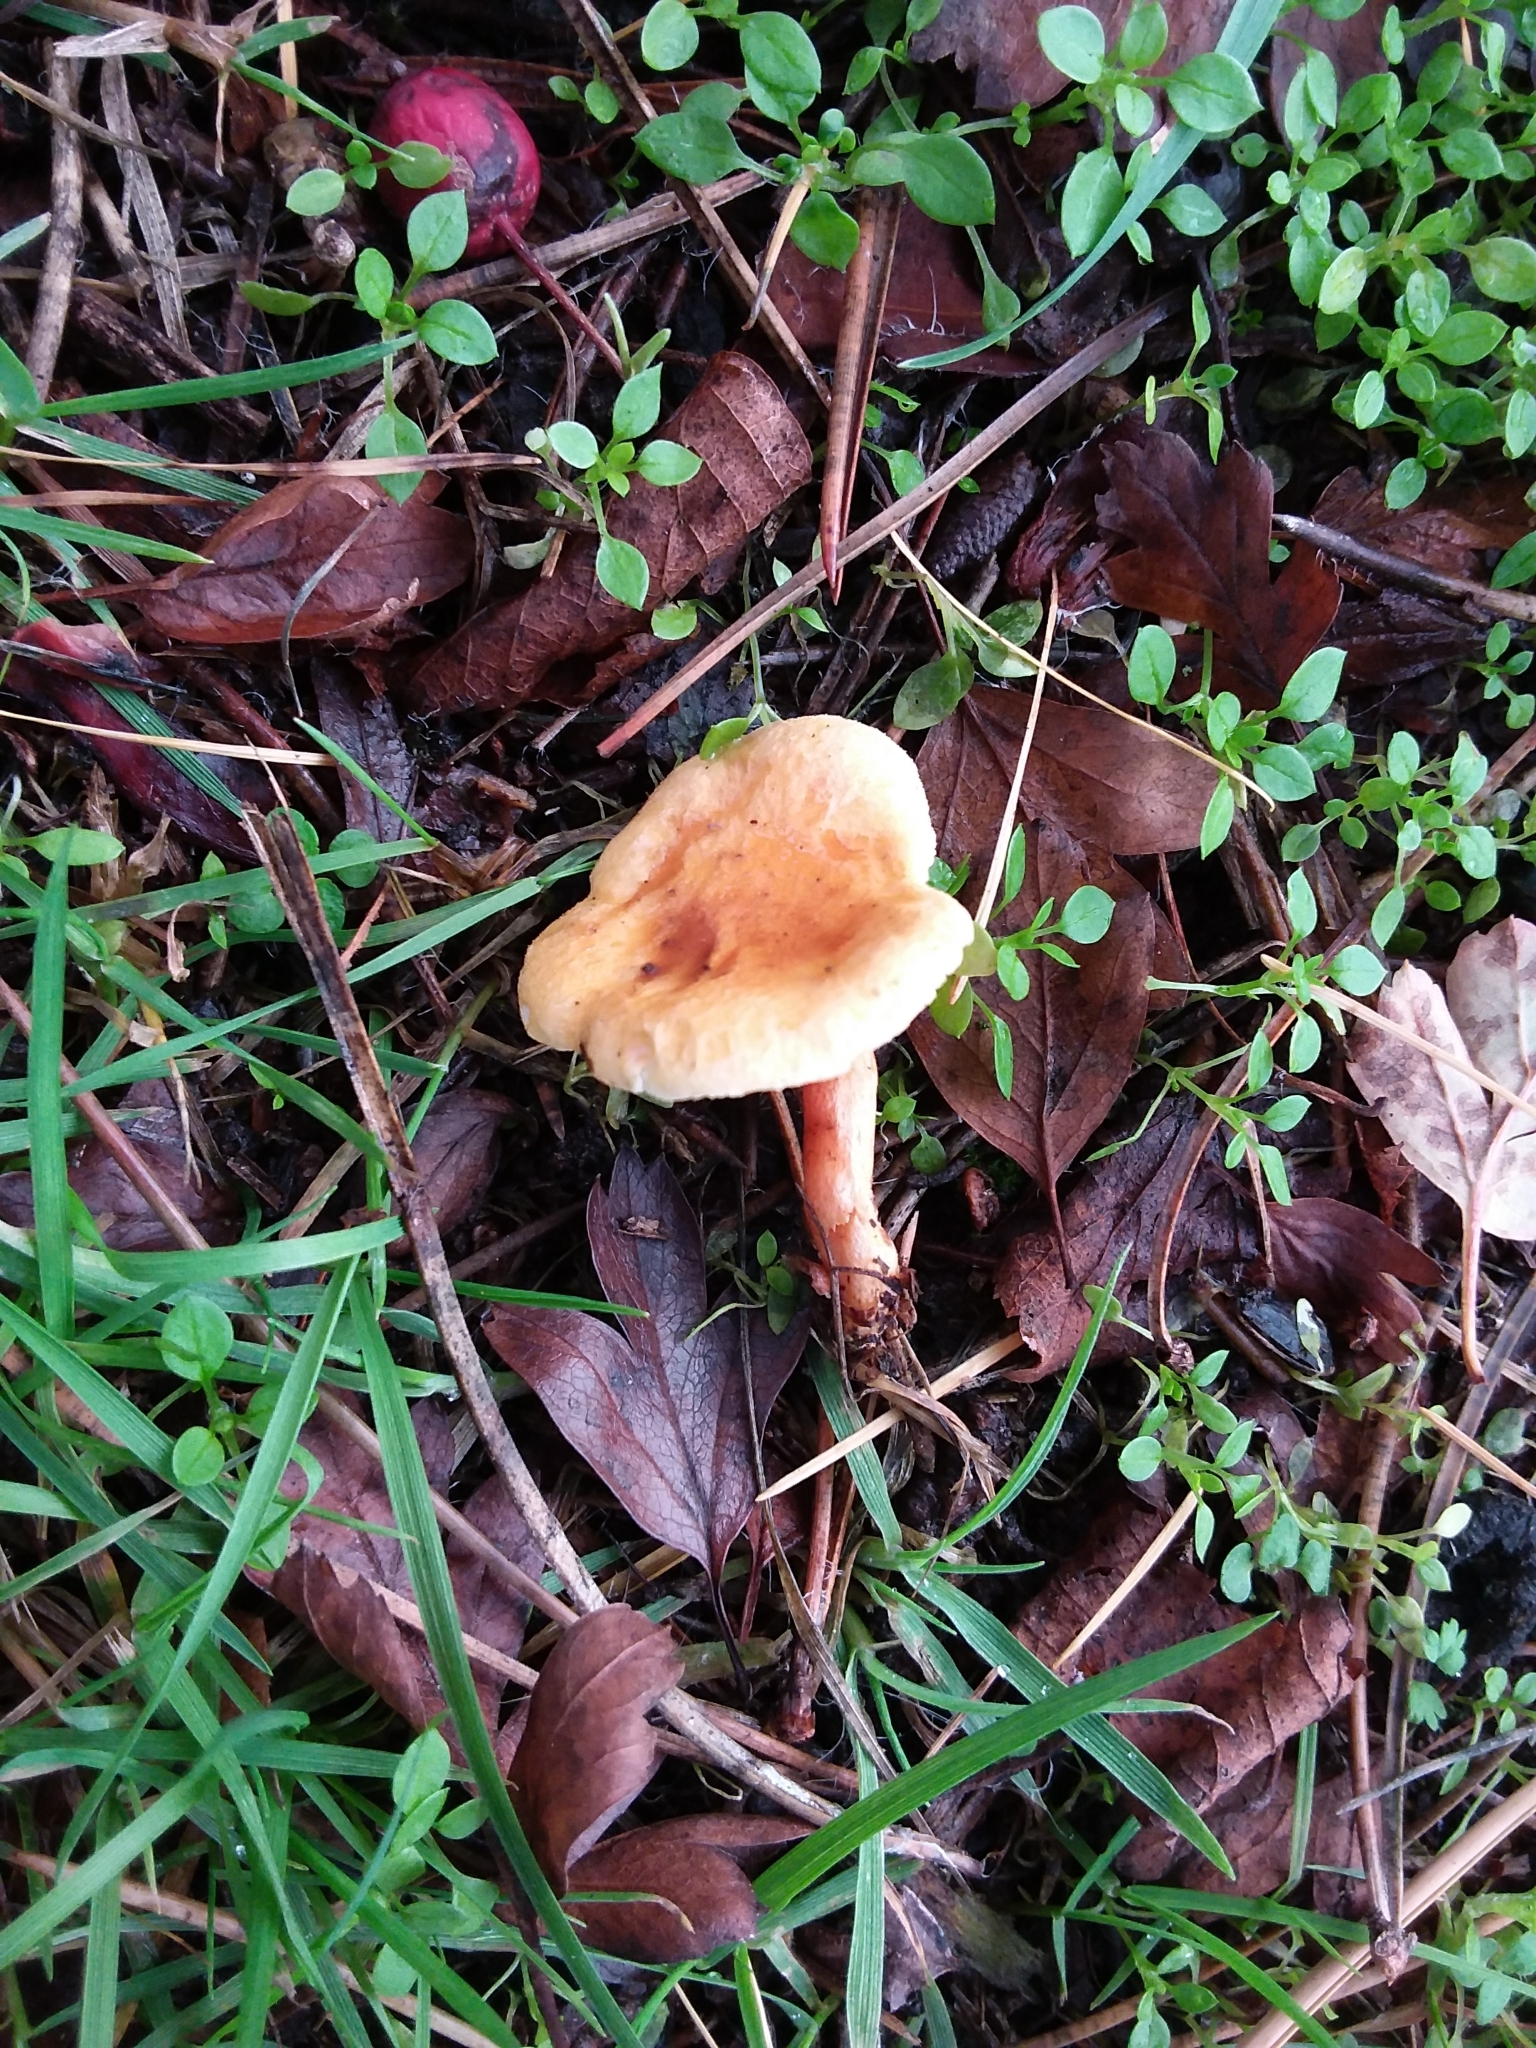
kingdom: Fungi
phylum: Basidiomycota
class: Agaricomycetes
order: Boletales
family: Hygrophoropsidaceae
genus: Hygrophoropsis
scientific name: Hygrophoropsis aurantiaca
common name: False chanterelle
